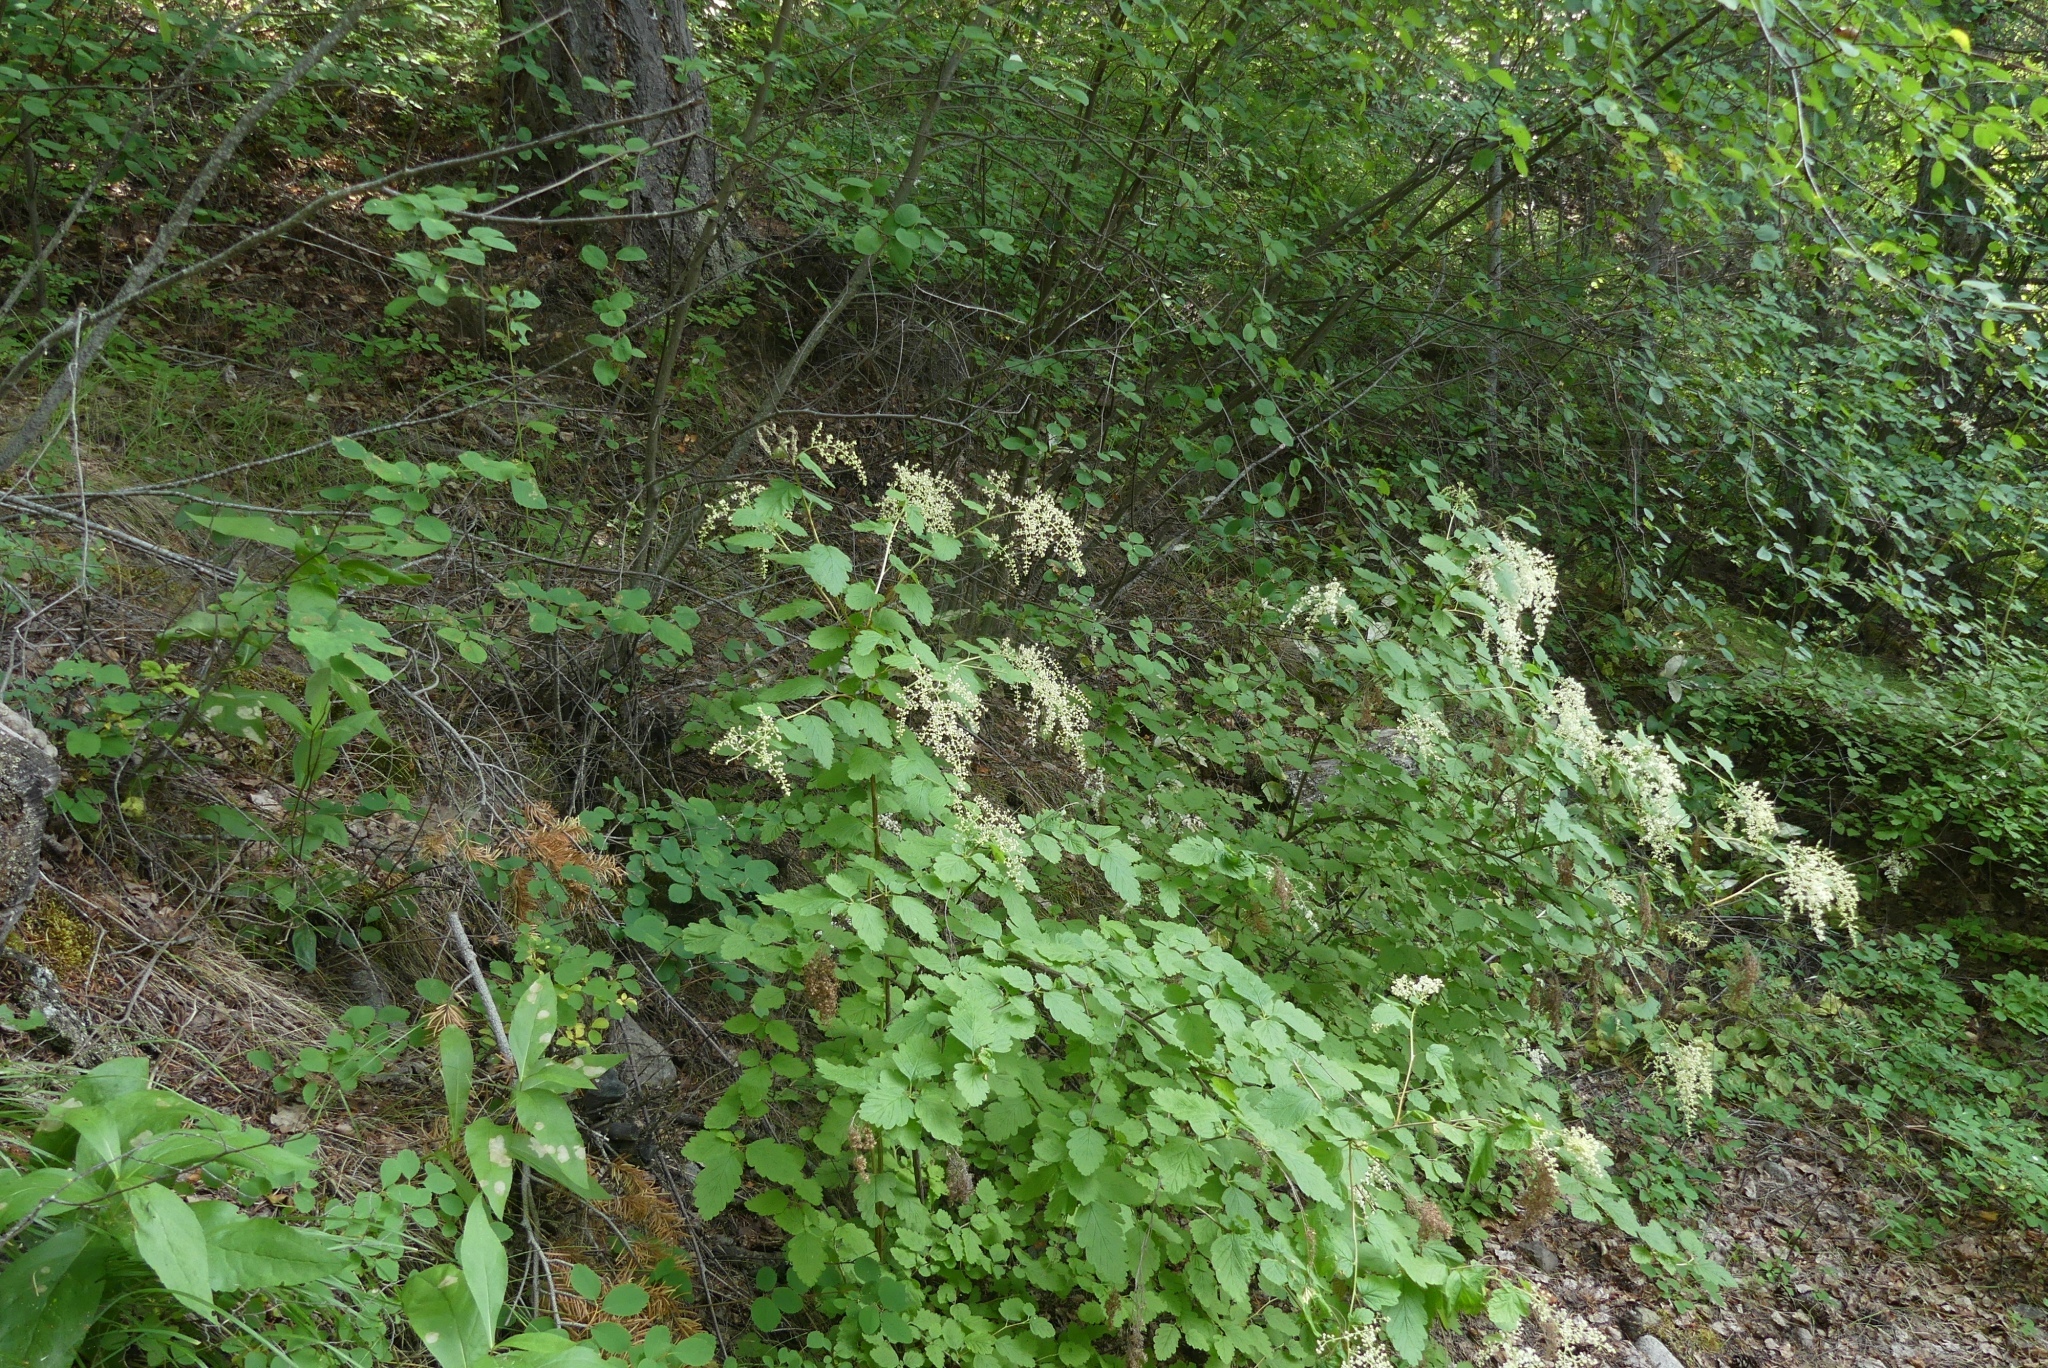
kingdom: Plantae
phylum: Tracheophyta
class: Magnoliopsida
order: Rosales
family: Rosaceae
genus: Holodiscus
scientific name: Holodiscus discolor
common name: Oceanspray
